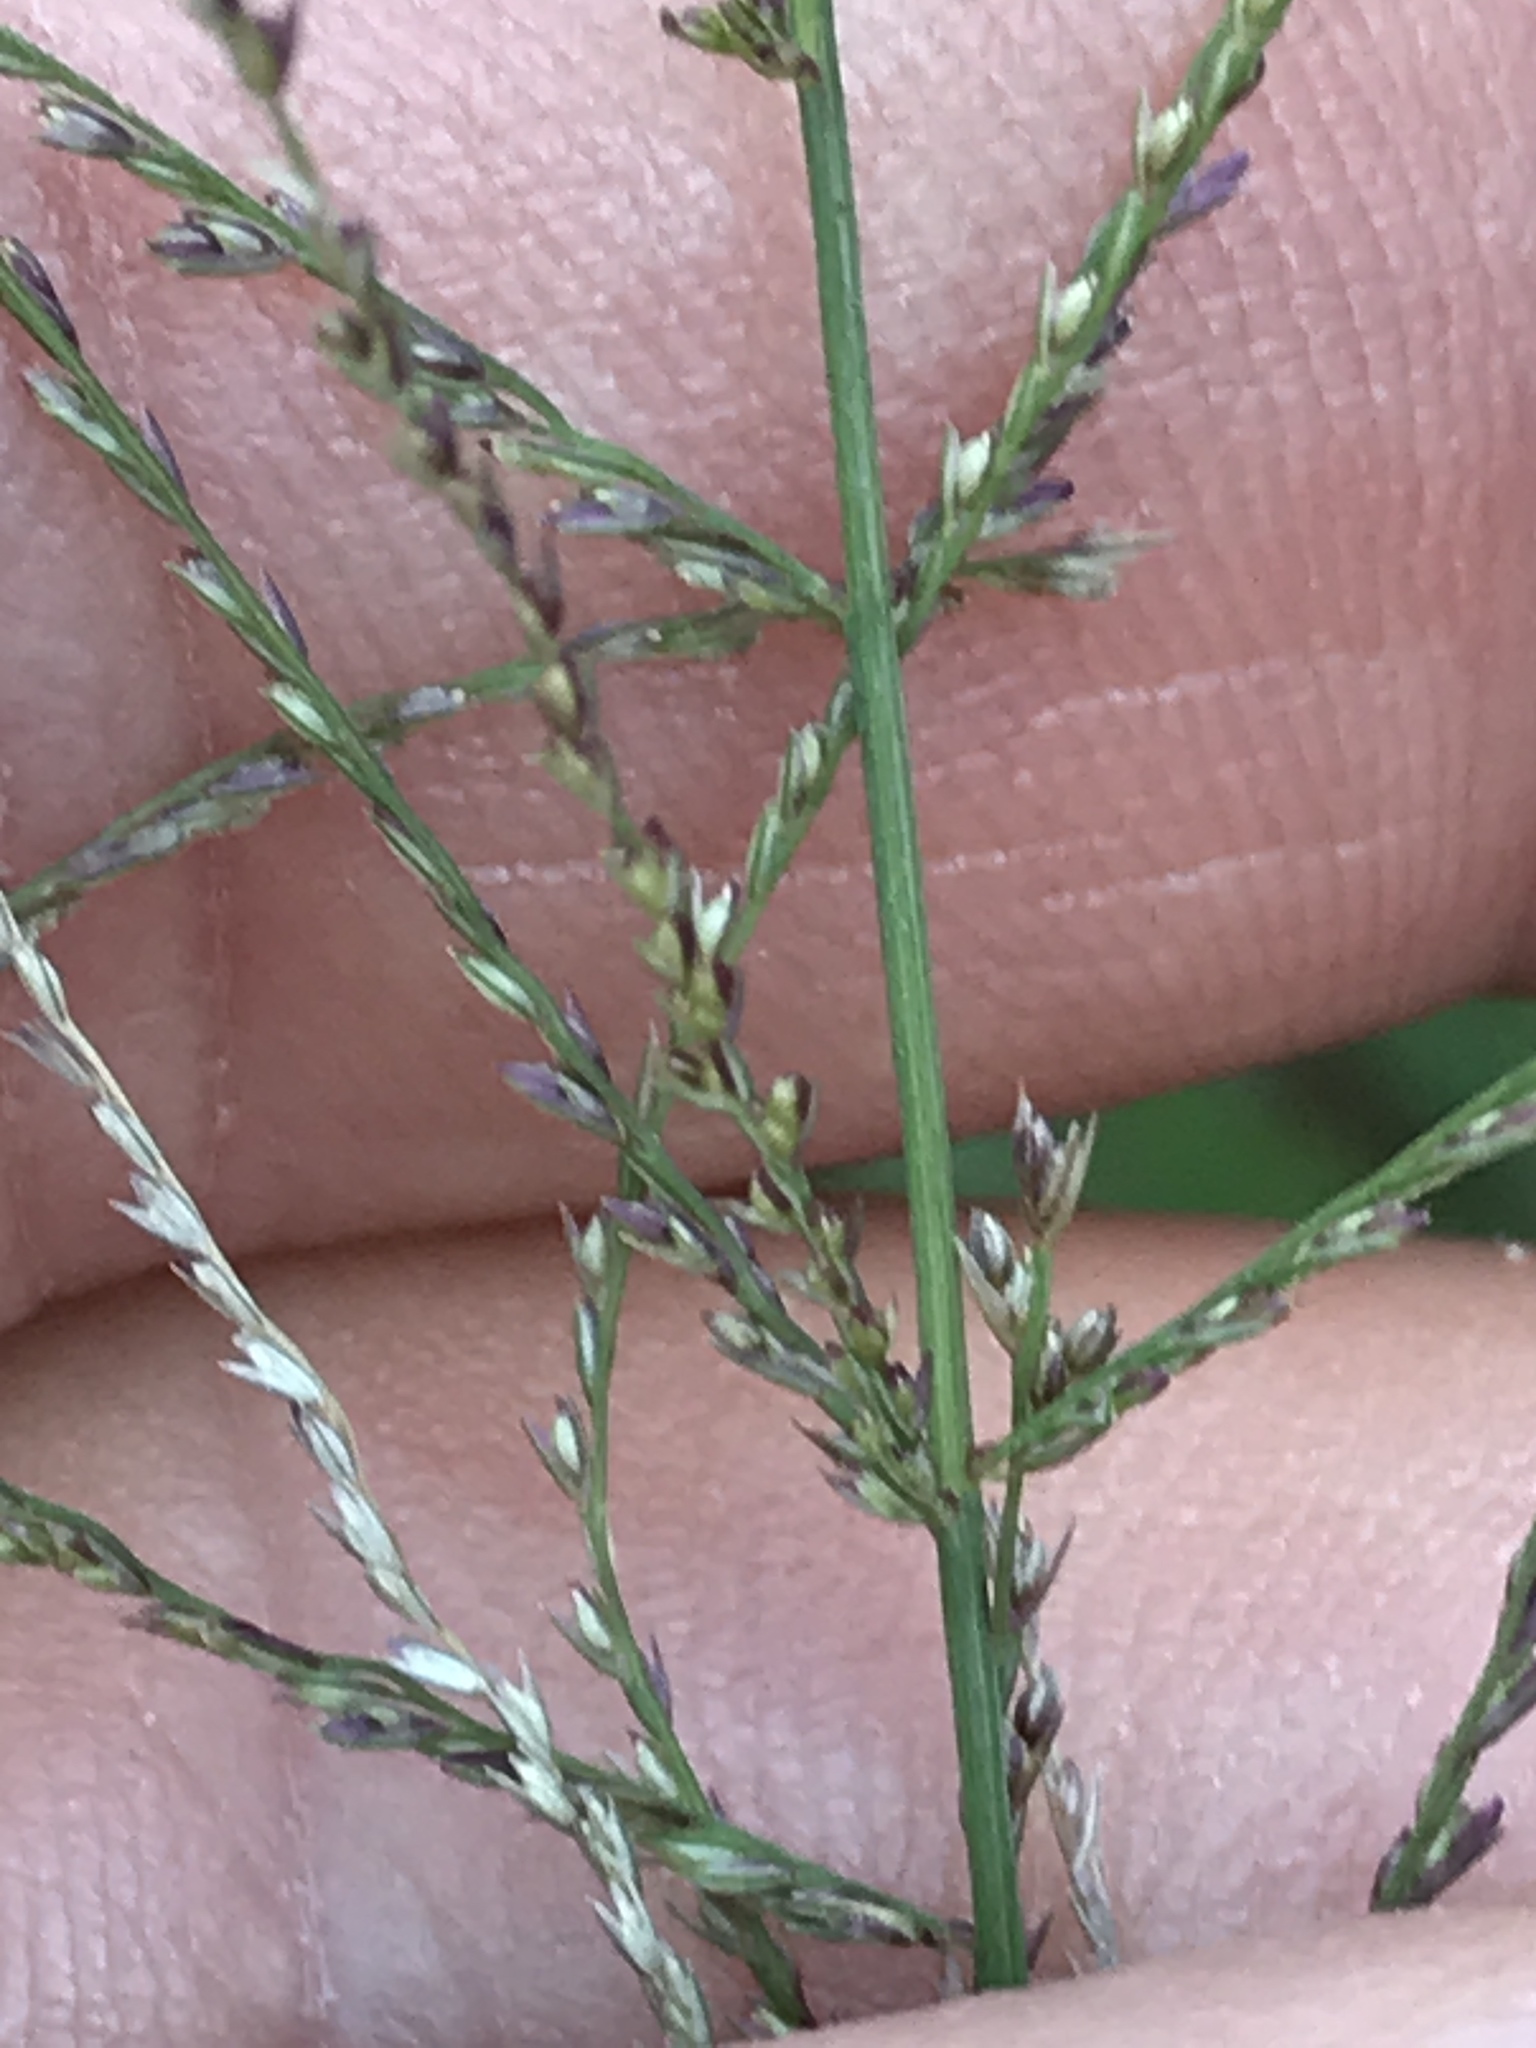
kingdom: Plantae
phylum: Tracheophyta
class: Liliopsida
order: Poales
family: Poaceae
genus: Leptochloa
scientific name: Leptochloa mucronata
